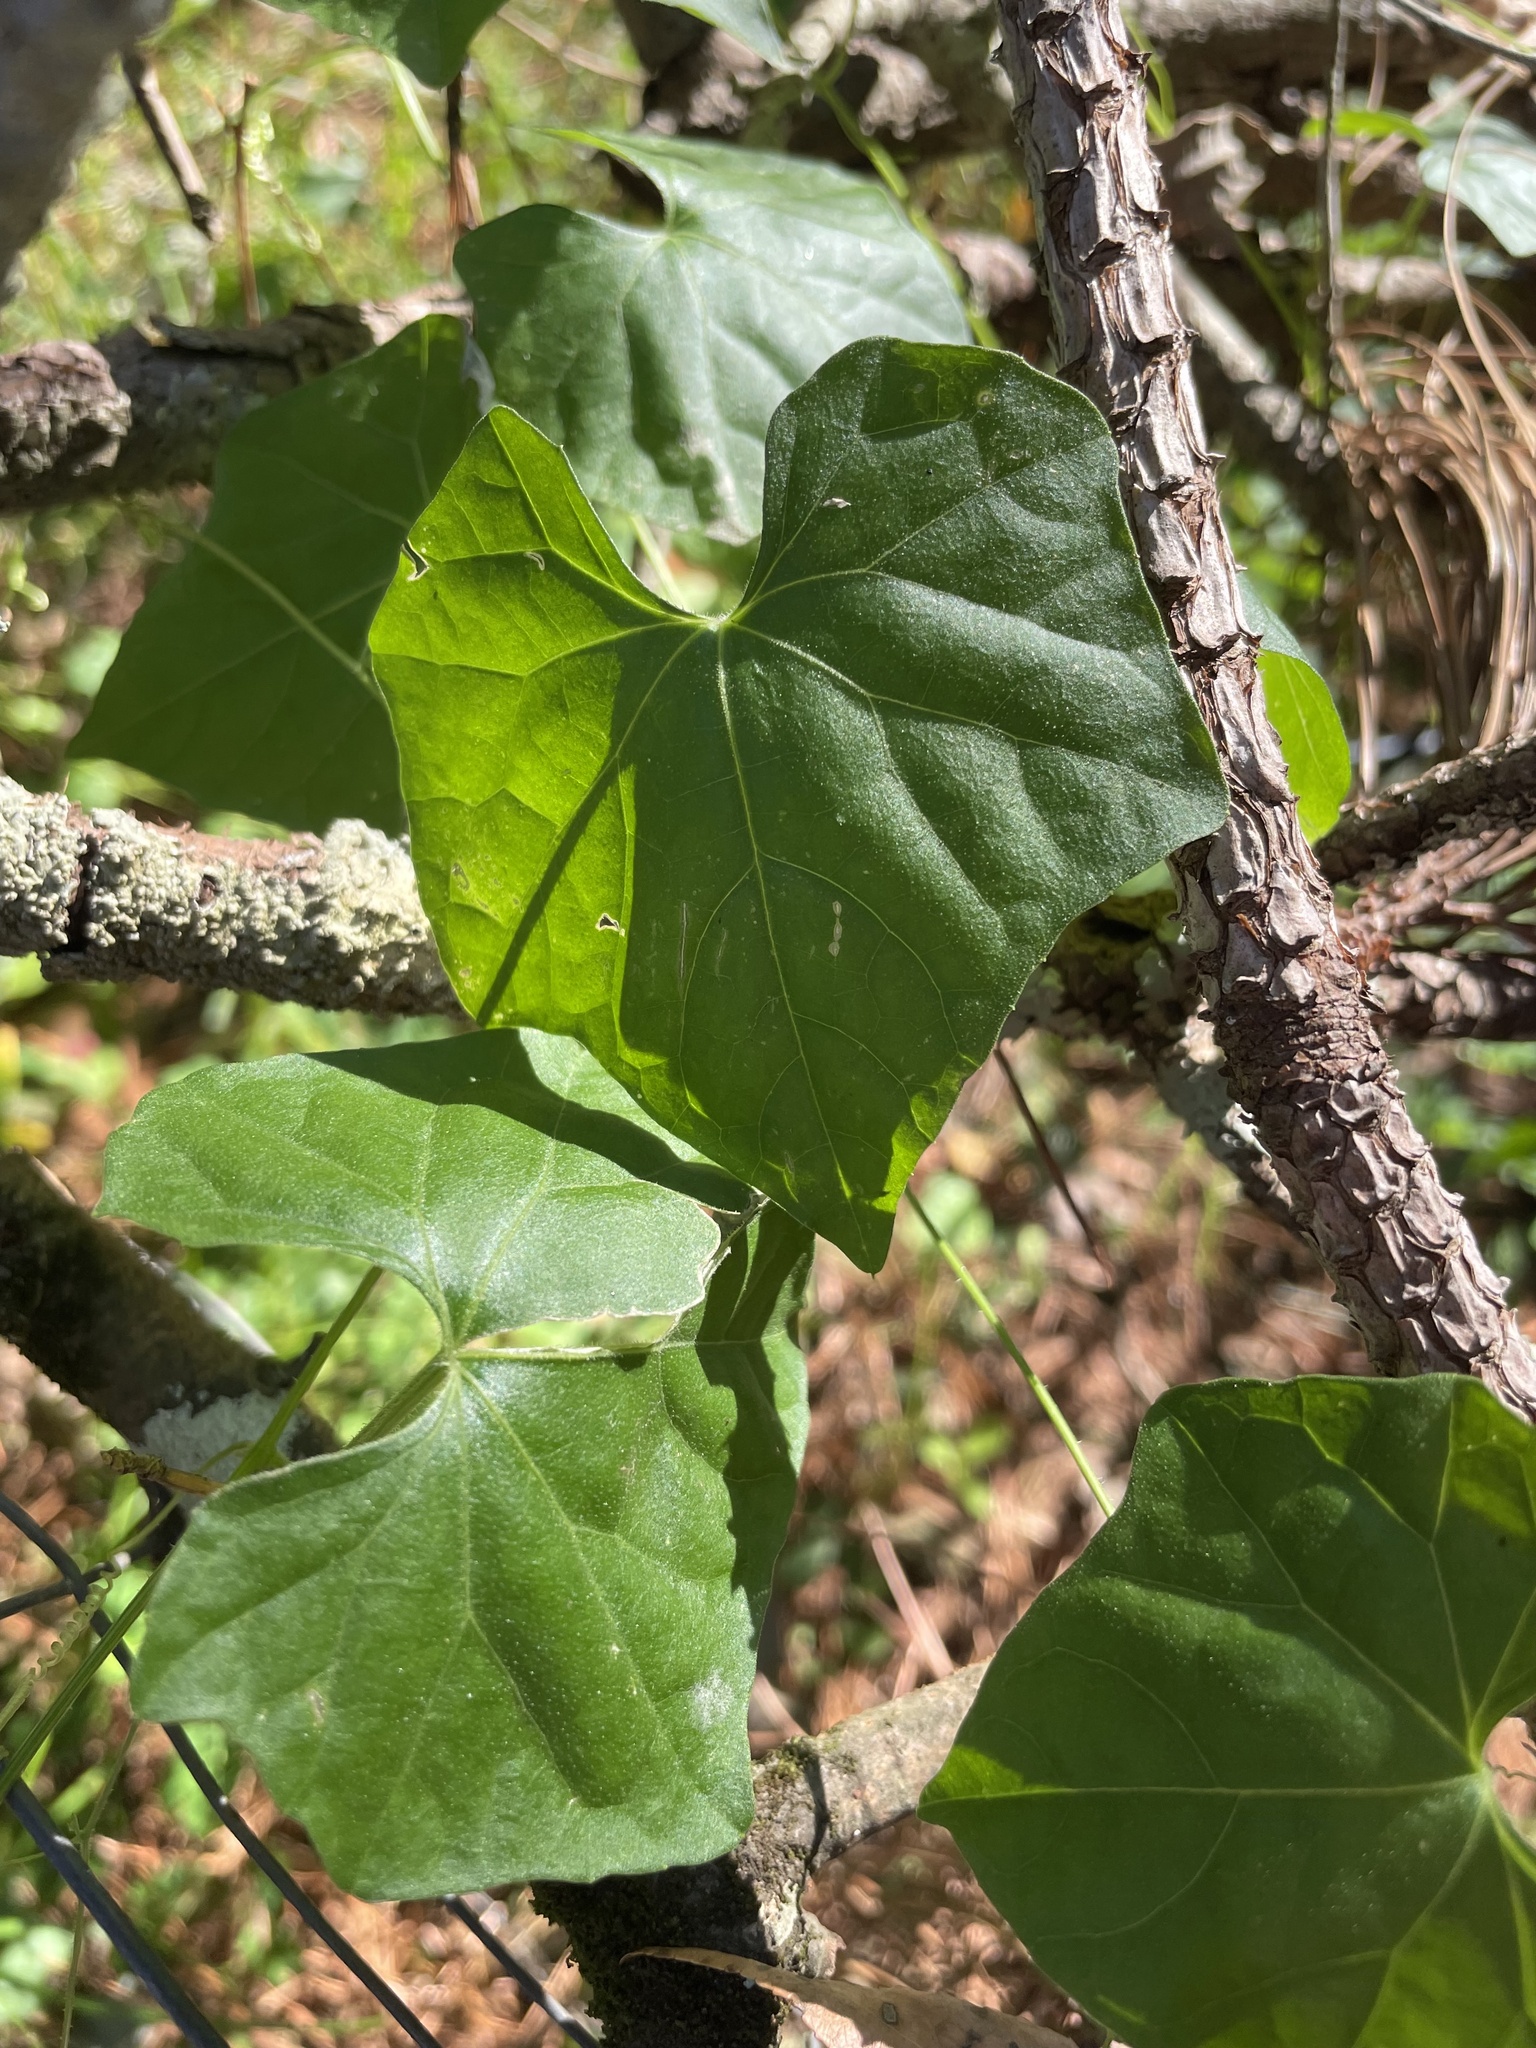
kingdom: Plantae
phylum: Tracheophyta
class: Magnoliopsida
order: Cucurbitales
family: Cucurbitaceae
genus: Melothria
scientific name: Melothria pendula
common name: Creeping-cucumber
